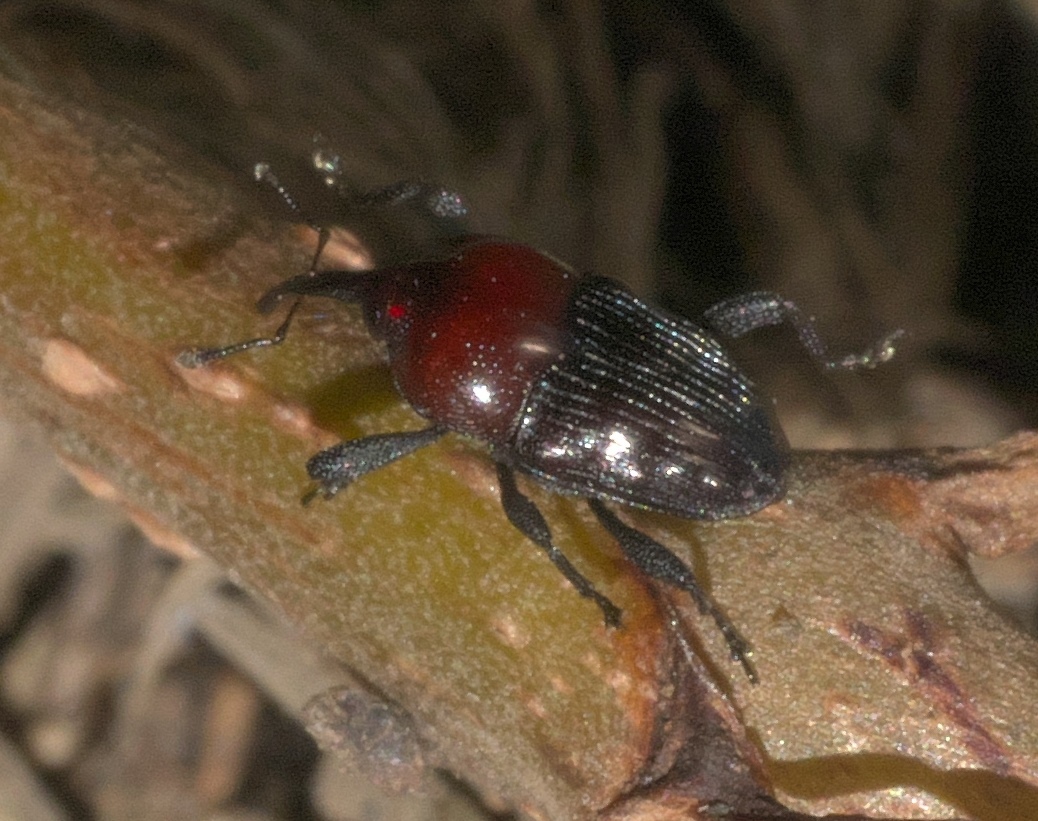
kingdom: Animalia
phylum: Arthropoda
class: Insecta
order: Coleoptera
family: Curculionidae
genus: Madarellus
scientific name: Madarellus undulatus
